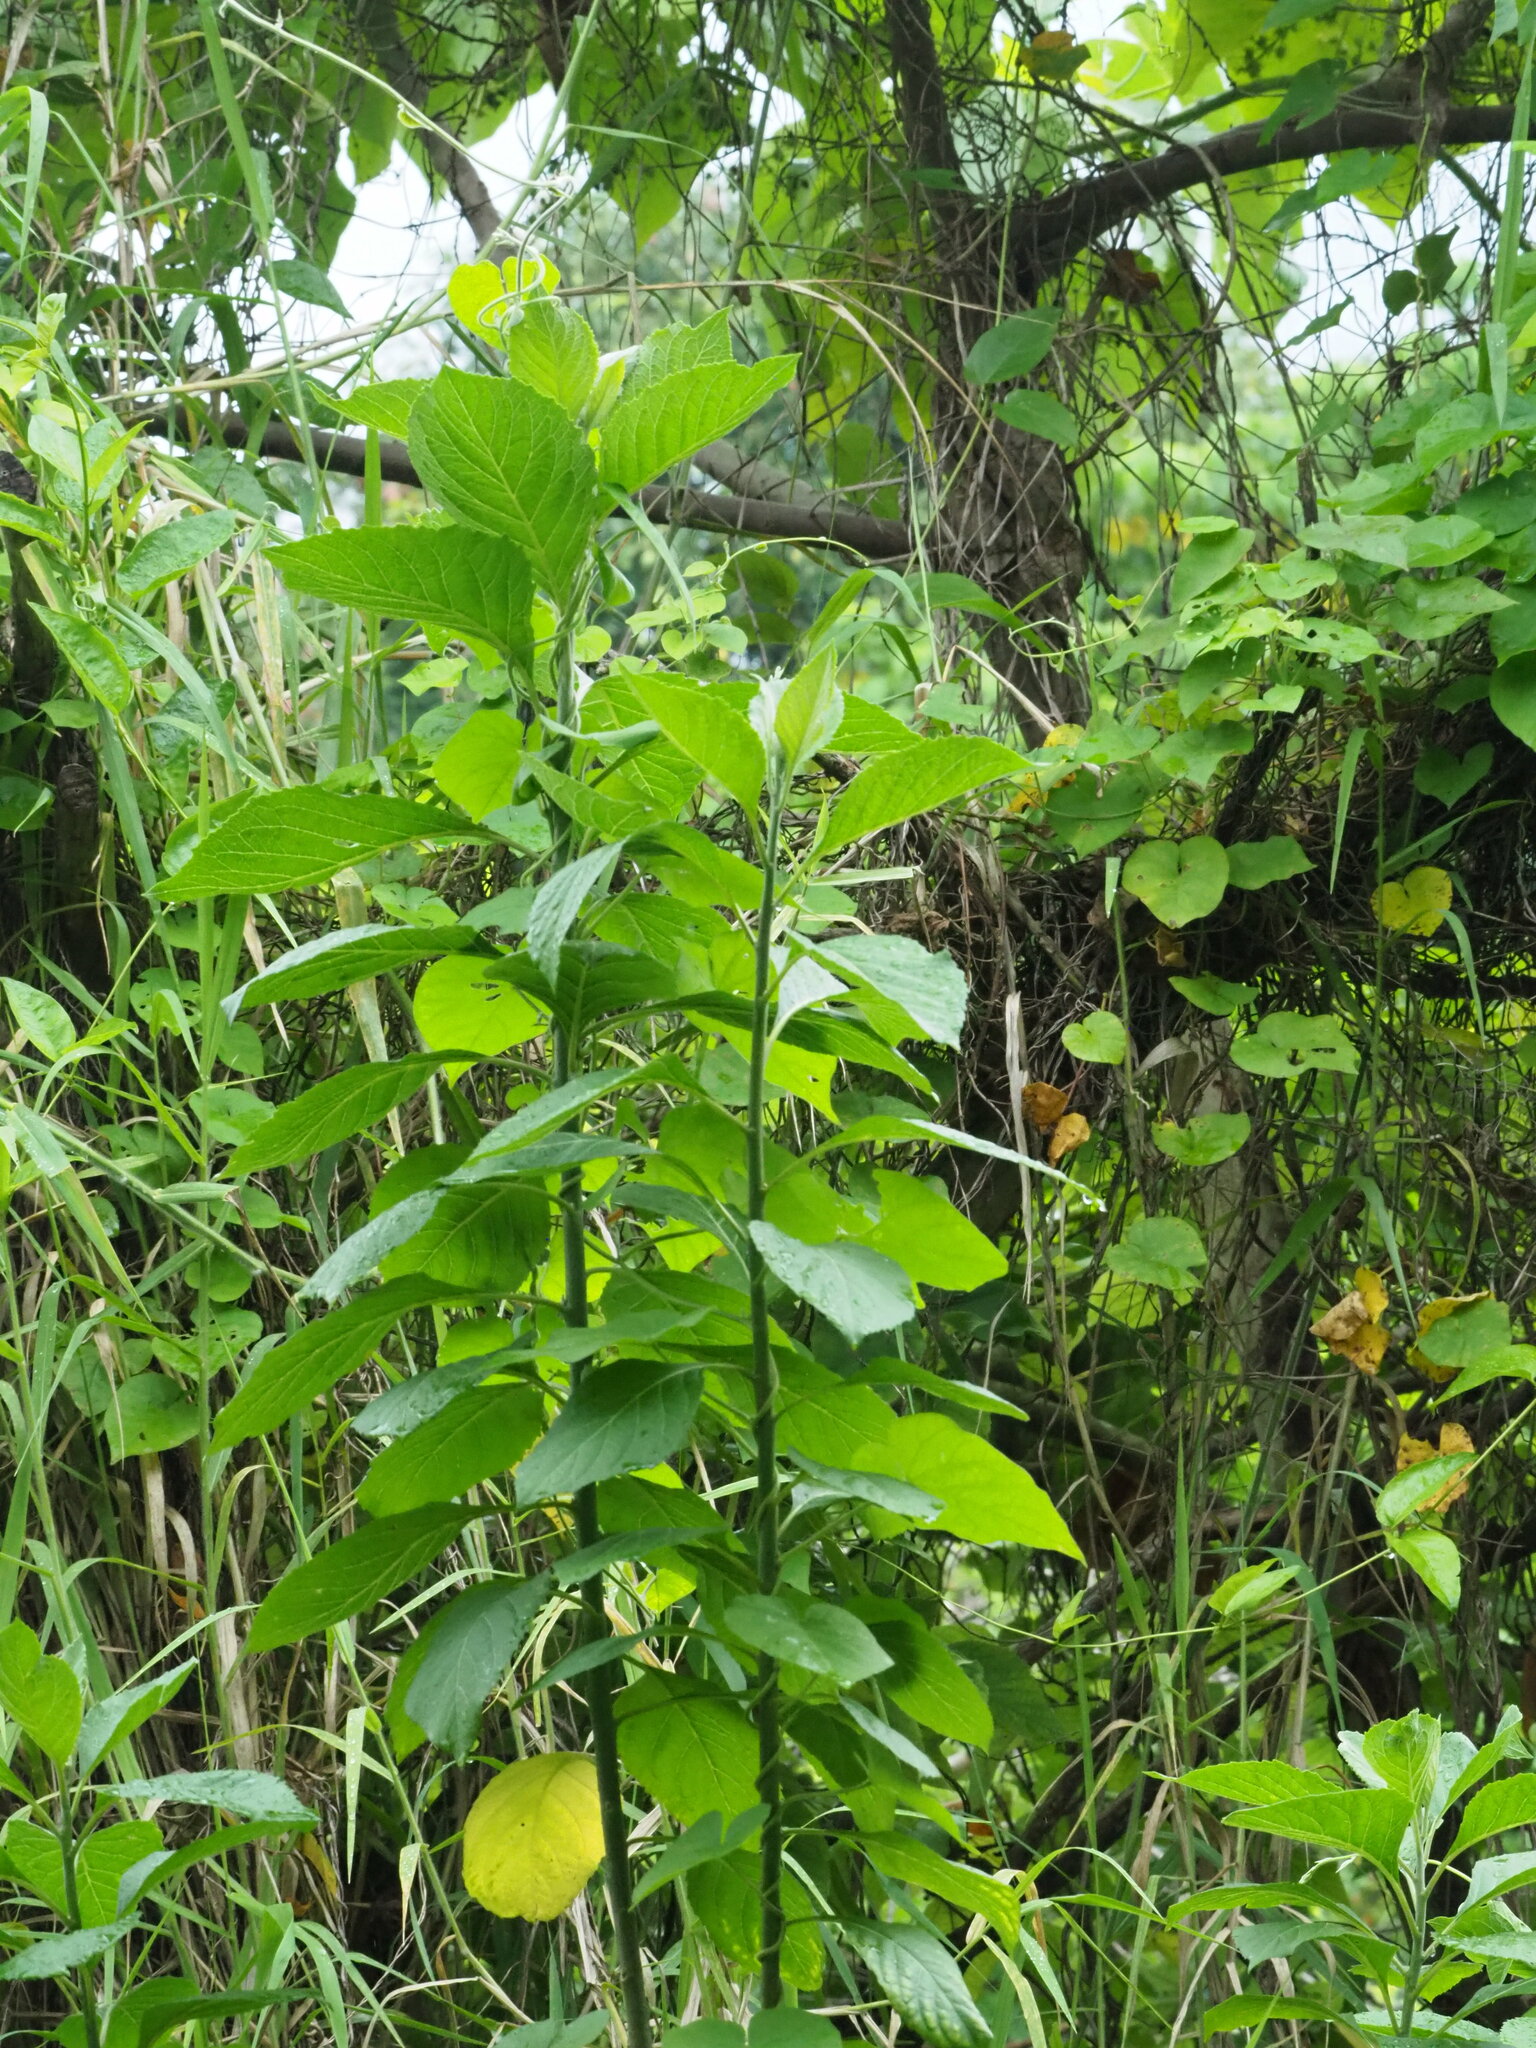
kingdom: Plantae
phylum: Tracheophyta
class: Magnoliopsida
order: Asterales
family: Asteraceae
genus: Gymnanthemum
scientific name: Gymnanthemum amygdalinum
